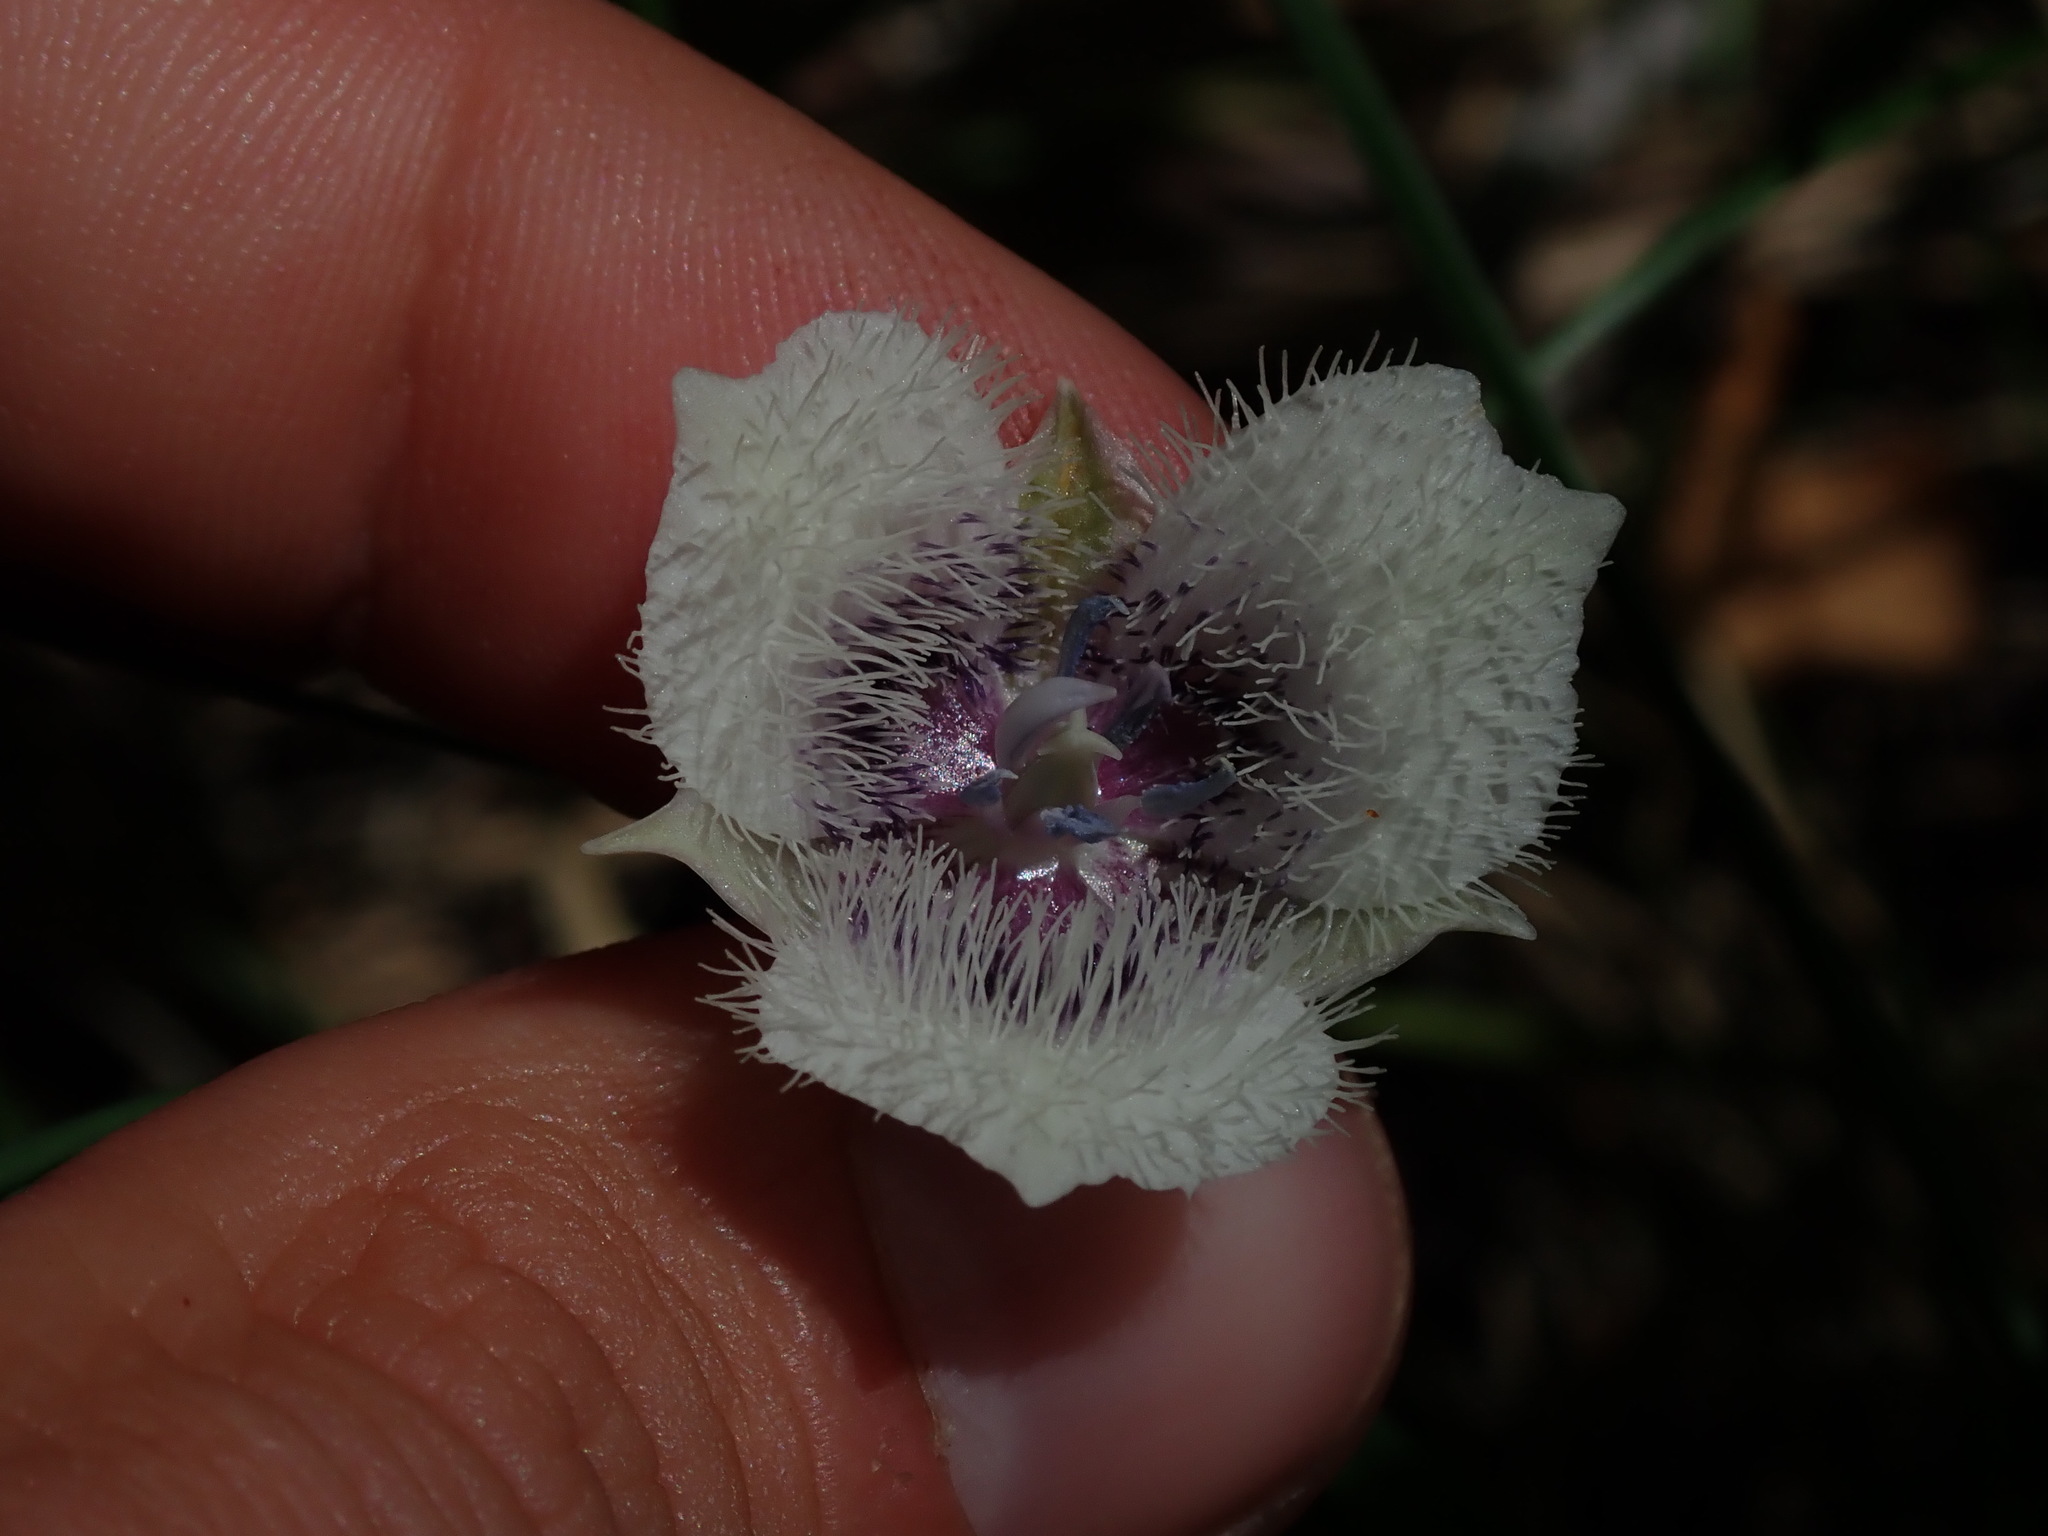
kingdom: Plantae
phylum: Tracheophyta
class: Liliopsida
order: Liliales
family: Liliaceae
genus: Calochortus
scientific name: Calochortus tolmiei
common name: Pussy-ears
